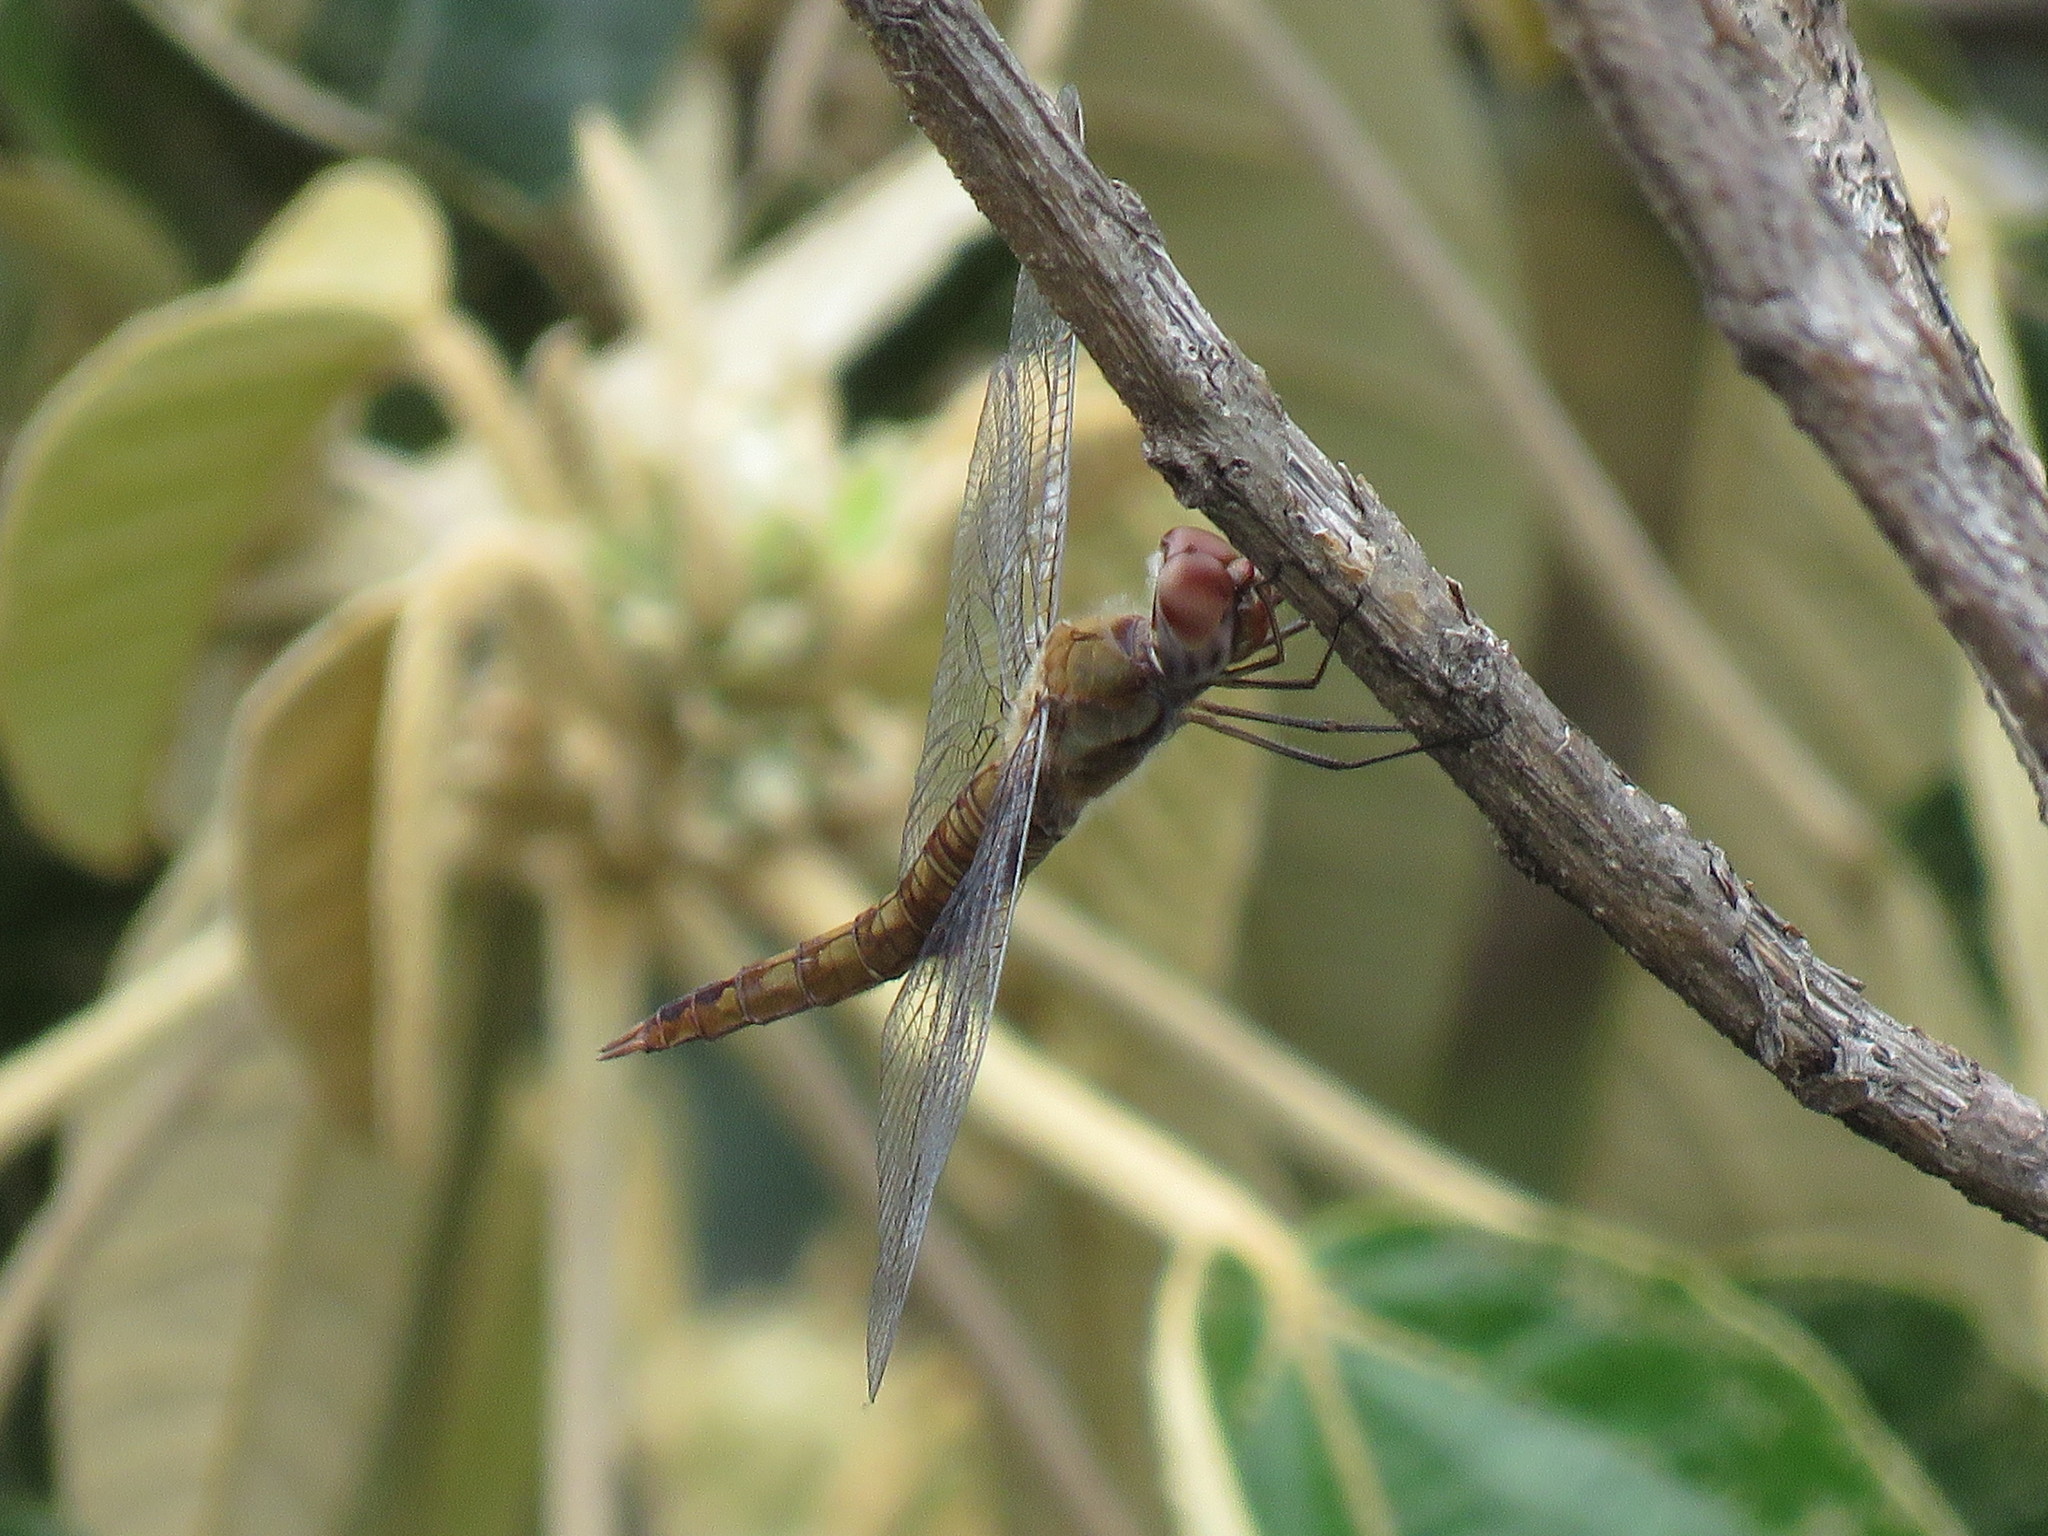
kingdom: Animalia
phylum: Arthropoda
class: Insecta
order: Odonata
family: Libellulidae
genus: Pantala
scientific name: Pantala flavescens
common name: Wandering glider
